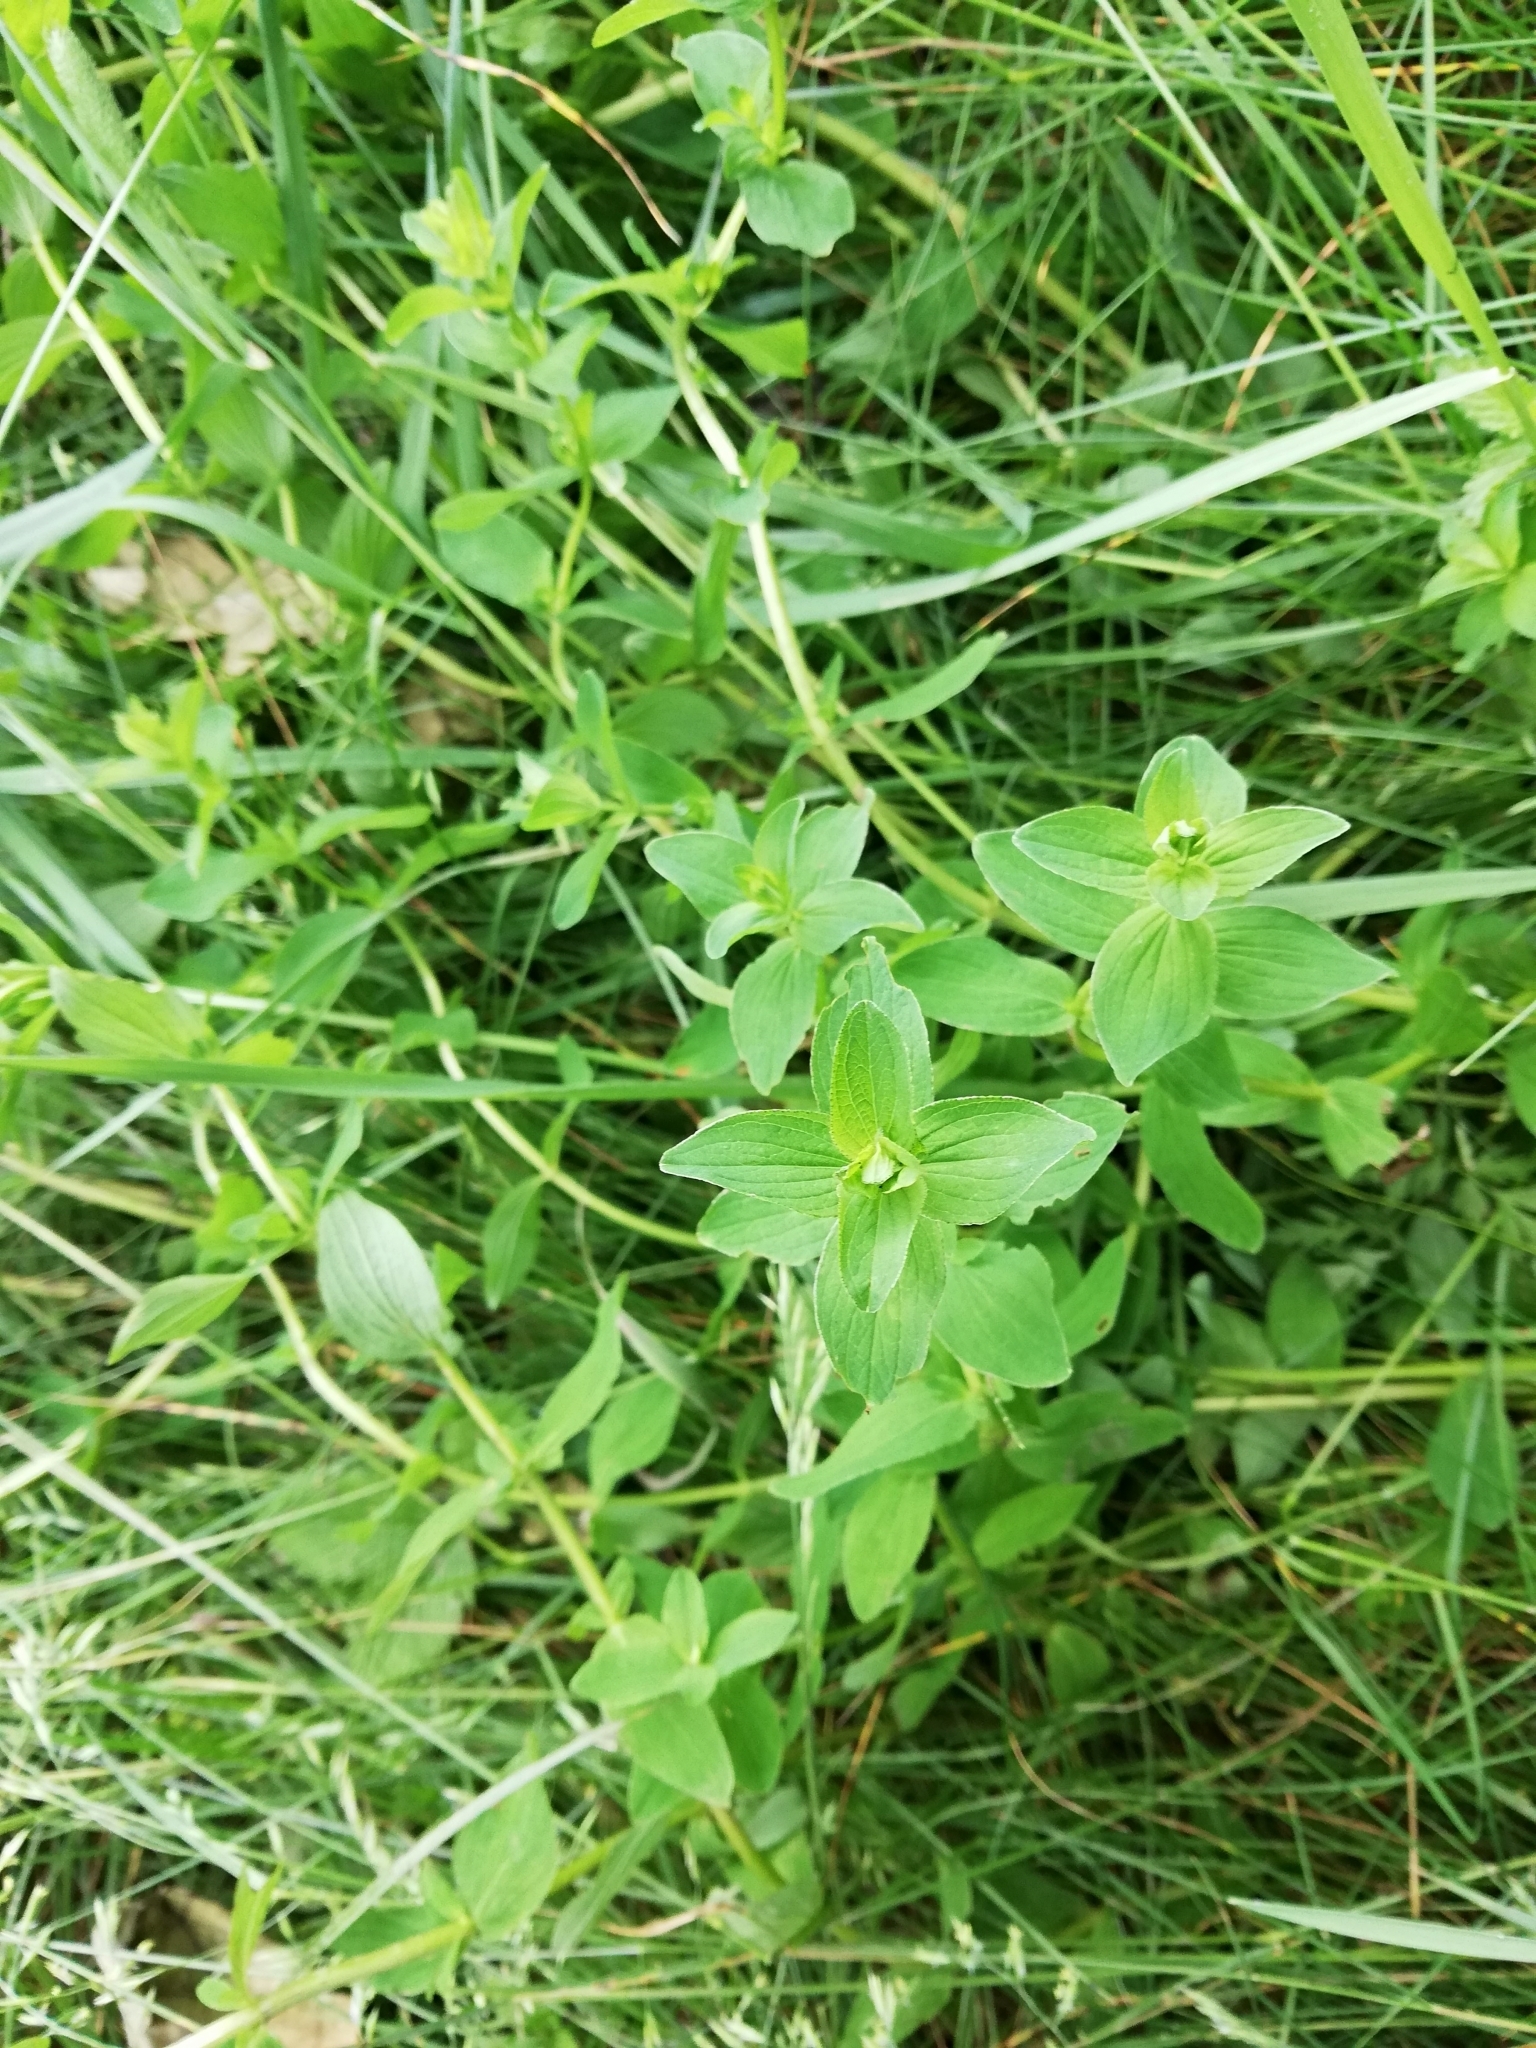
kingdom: Plantae
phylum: Tracheophyta
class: Magnoliopsida
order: Malpighiales
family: Hypericaceae
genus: Hypericum
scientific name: Hypericum maculatum
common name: Imperforate st. john's-wort
